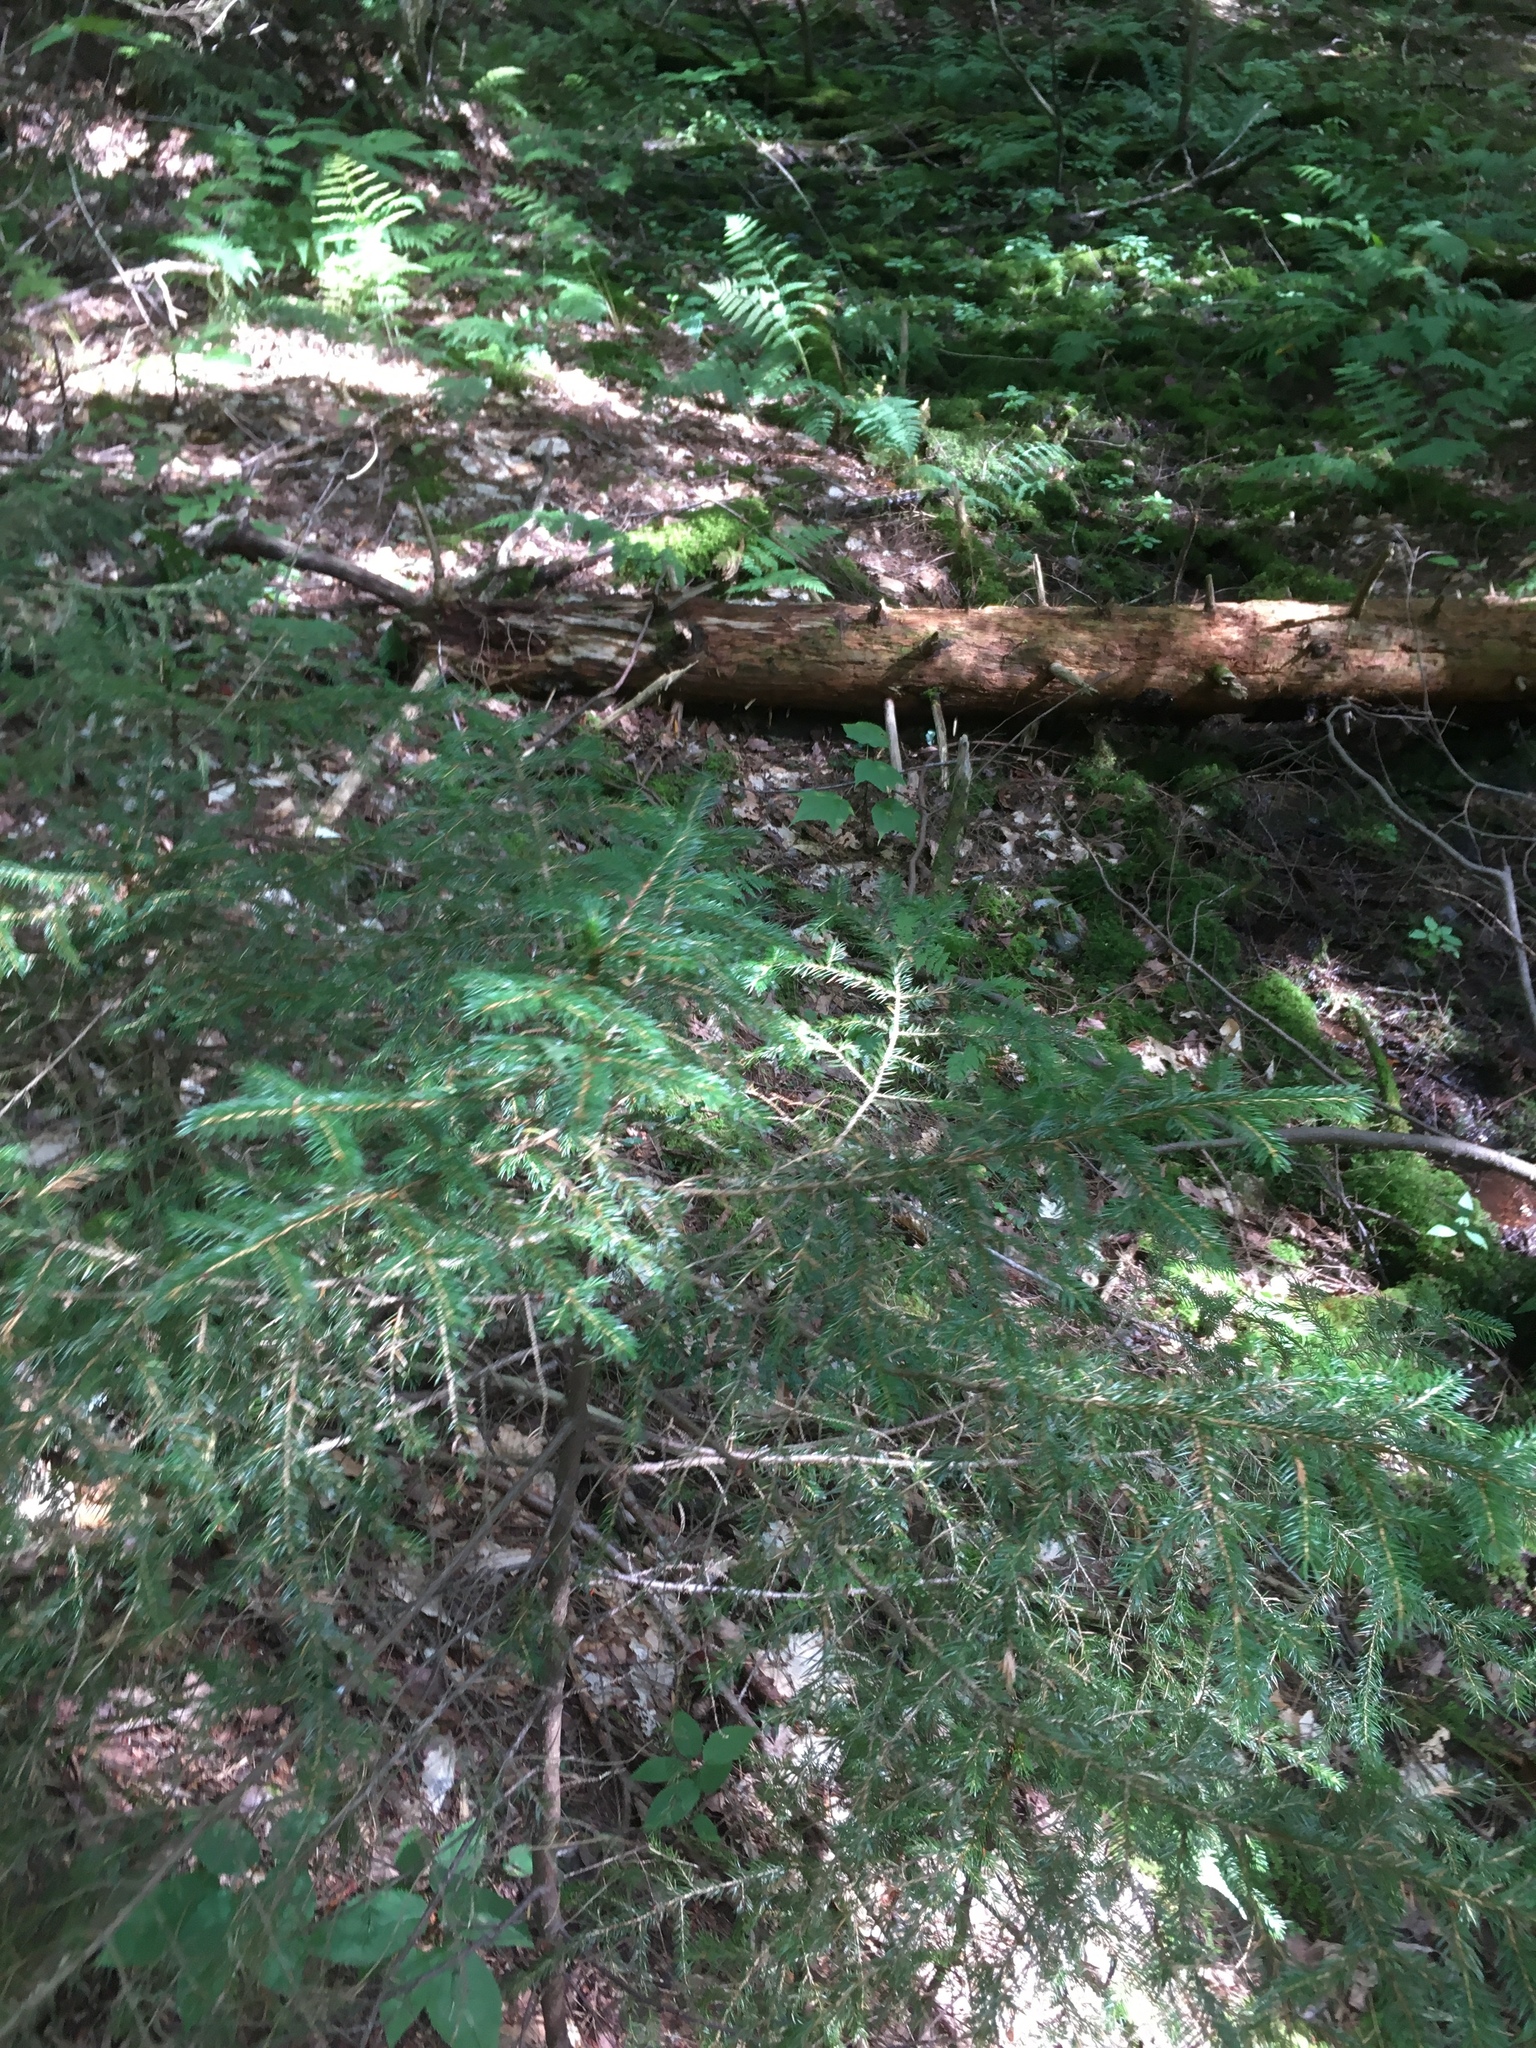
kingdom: Plantae
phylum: Tracheophyta
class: Pinopsida
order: Pinales
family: Pinaceae
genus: Picea
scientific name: Picea rubens
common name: Red spruce
